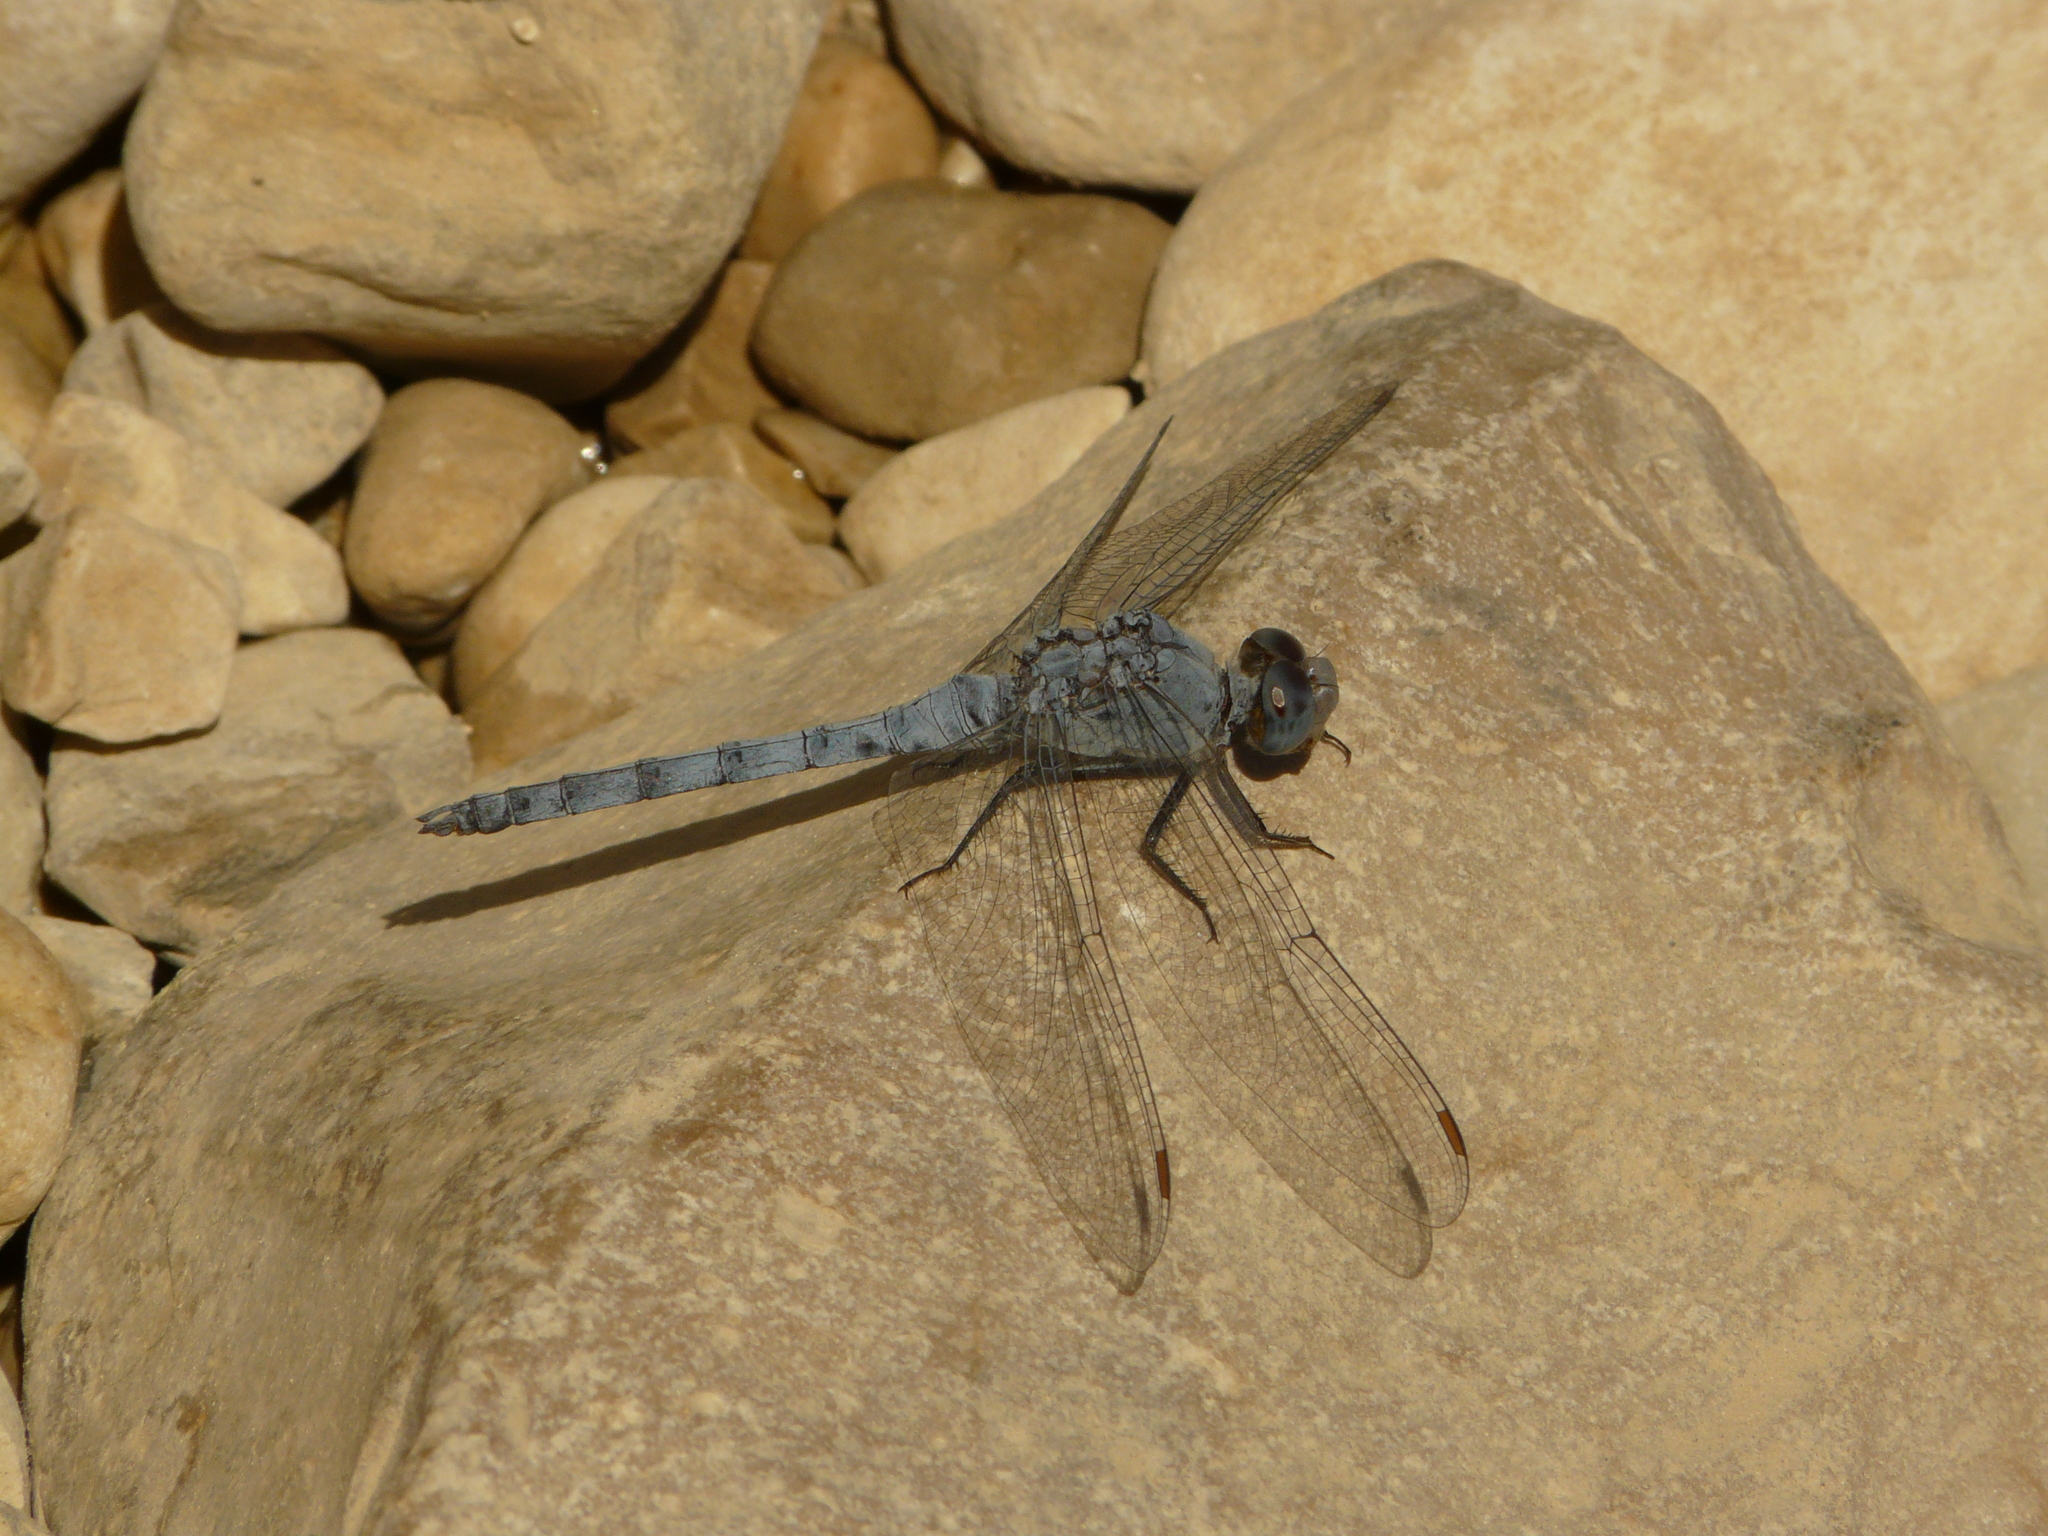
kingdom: Animalia
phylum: Arthropoda
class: Insecta
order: Odonata
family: Libellulidae
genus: Orthetrum
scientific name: Orthetrum ransonnetii
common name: Desert skimmer
